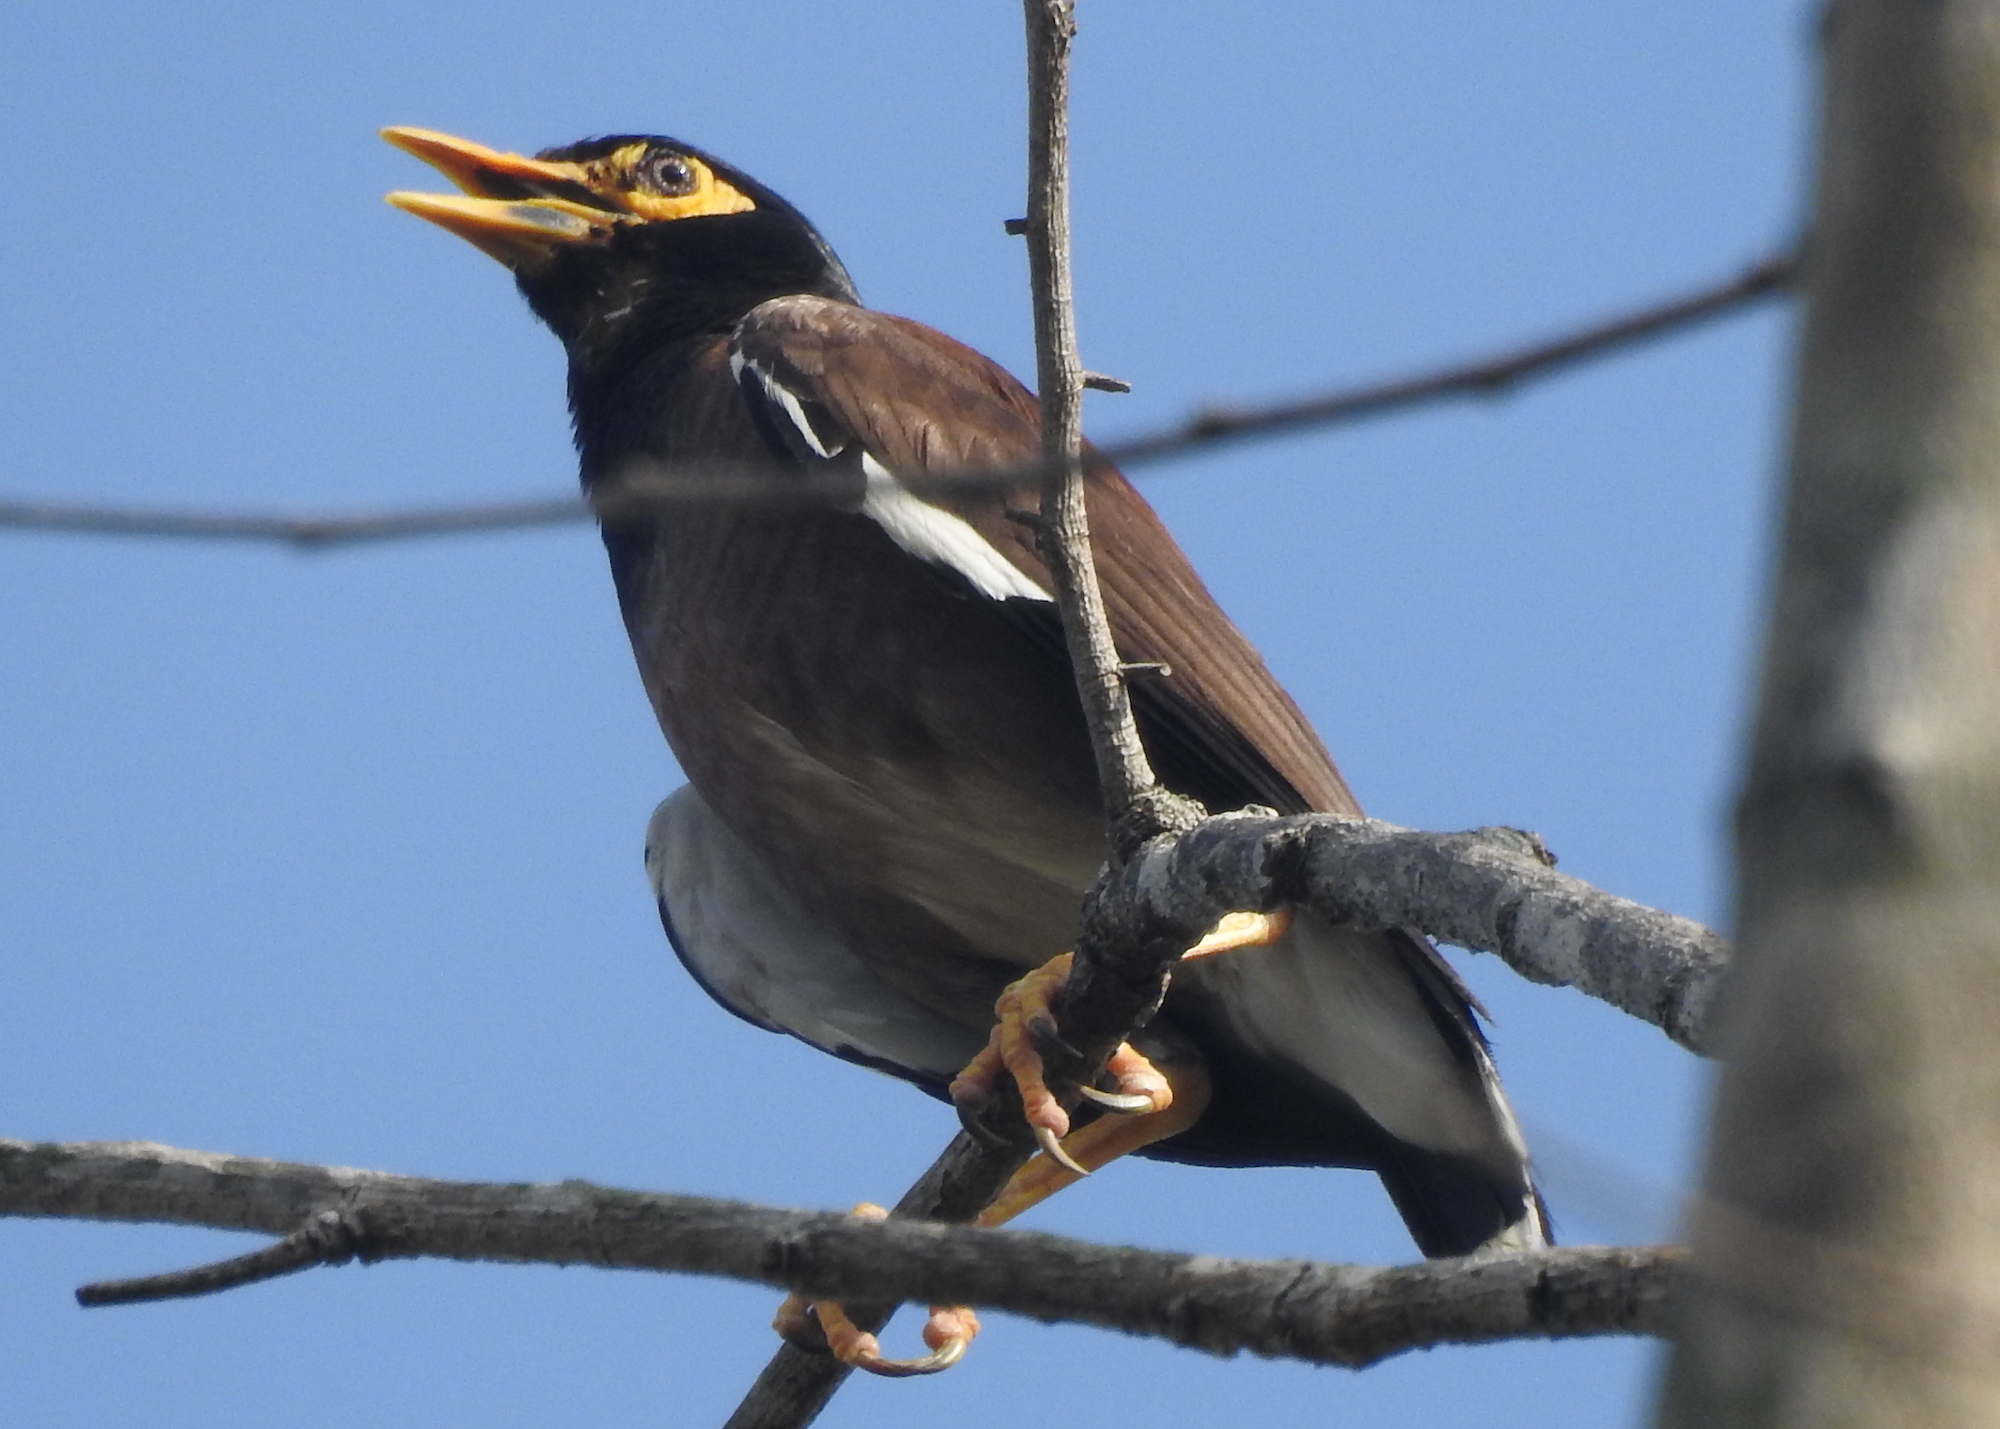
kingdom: Animalia
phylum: Chordata
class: Aves
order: Passeriformes
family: Sturnidae
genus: Acridotheres
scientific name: Acridotheres tristis
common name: Common myna
